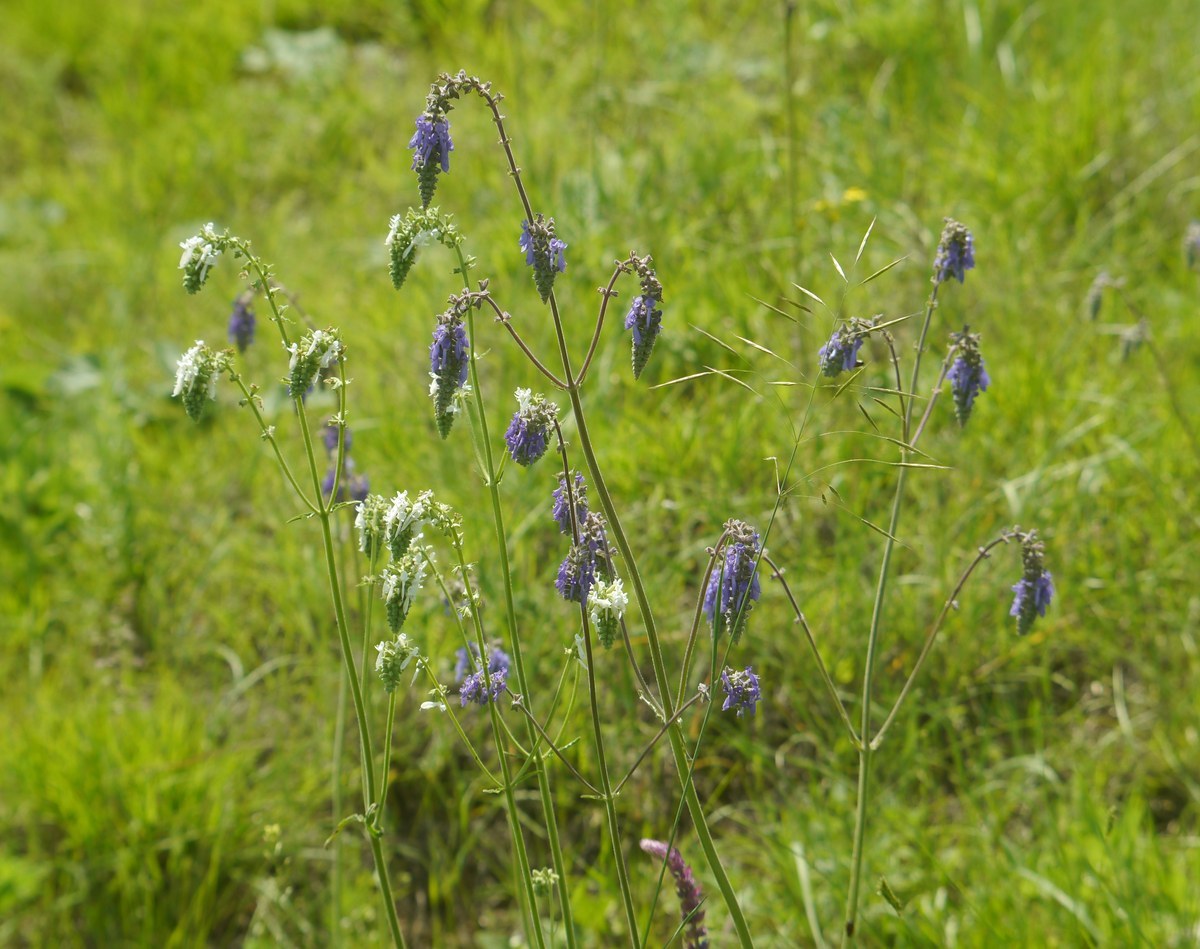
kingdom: Plantae
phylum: Tracheophyta
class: Magnoliopsida
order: Lamiales
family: Lamiaceae
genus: Salvia
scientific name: Salvia nutans
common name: Nodding sage
